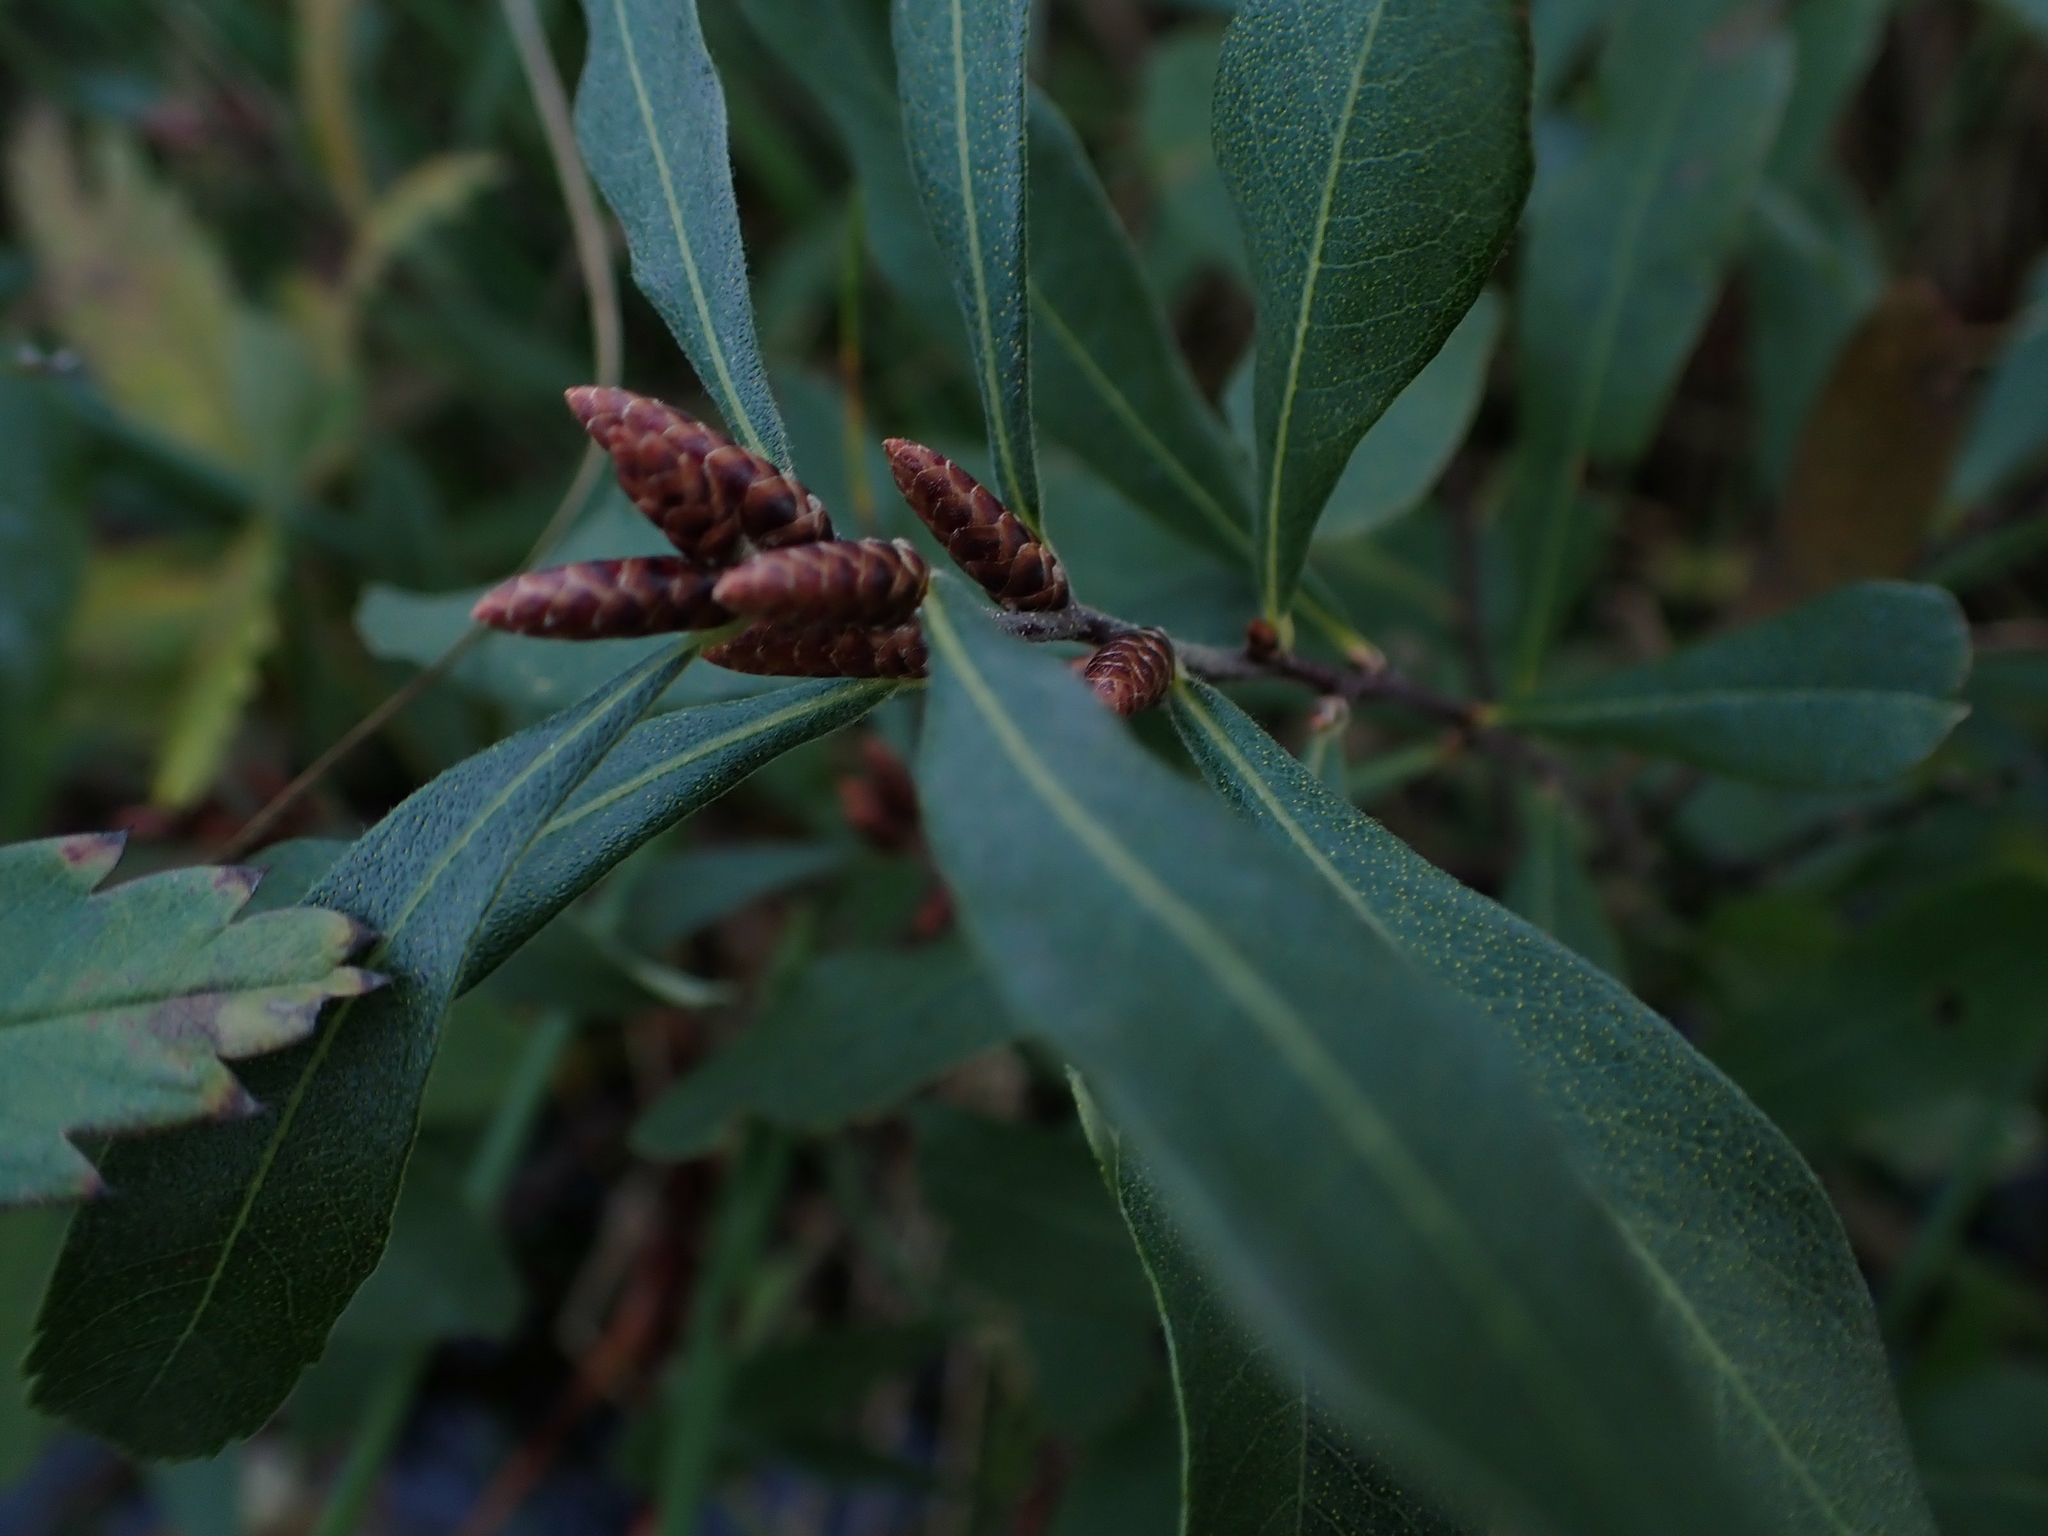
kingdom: Plantae
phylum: Tracheophyta
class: Magnoliopsida
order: Fagales
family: Myricaceae
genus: Myrica
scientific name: Myrica gale
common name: Sweet gale
